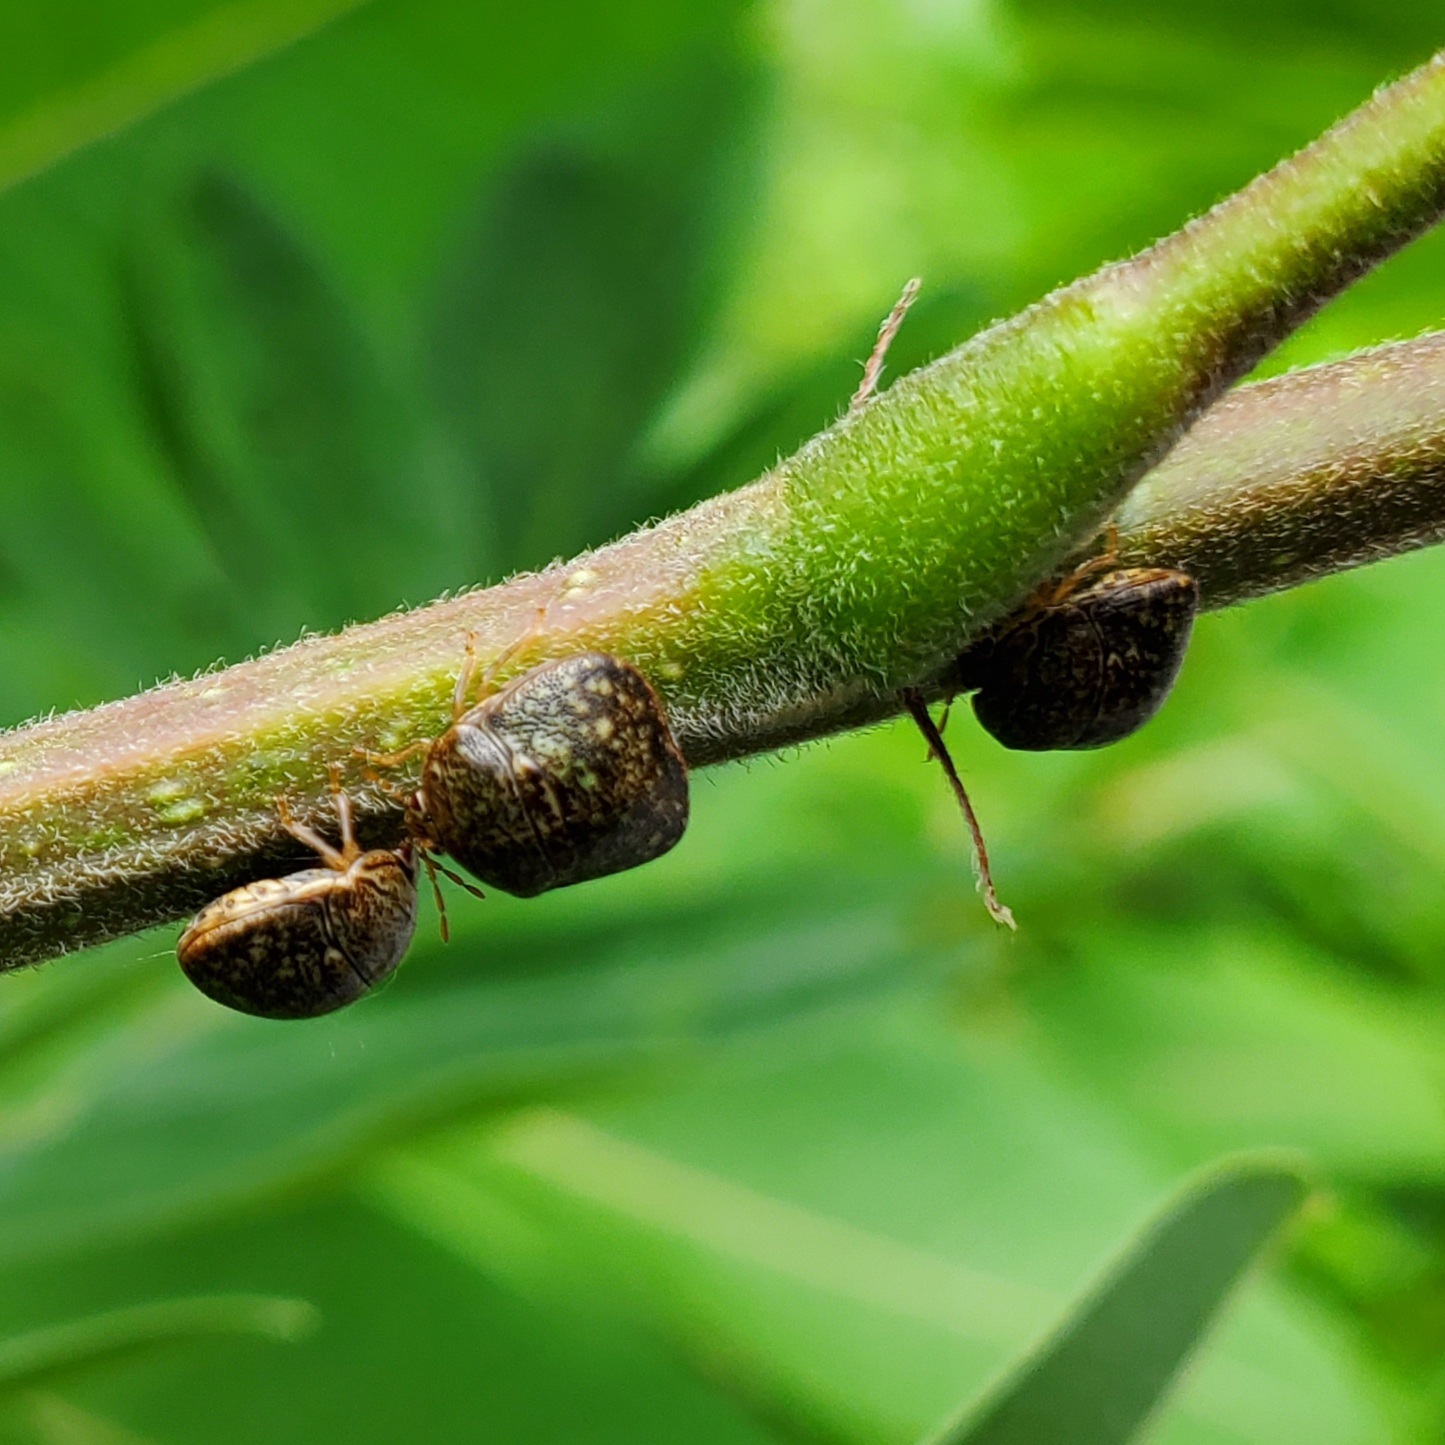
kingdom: Animalia
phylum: Arthropoda
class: Insecta
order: Hemiptera
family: Plataspidae
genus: Megacopta
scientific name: Megacopta cribraria
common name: Bean plataspid
